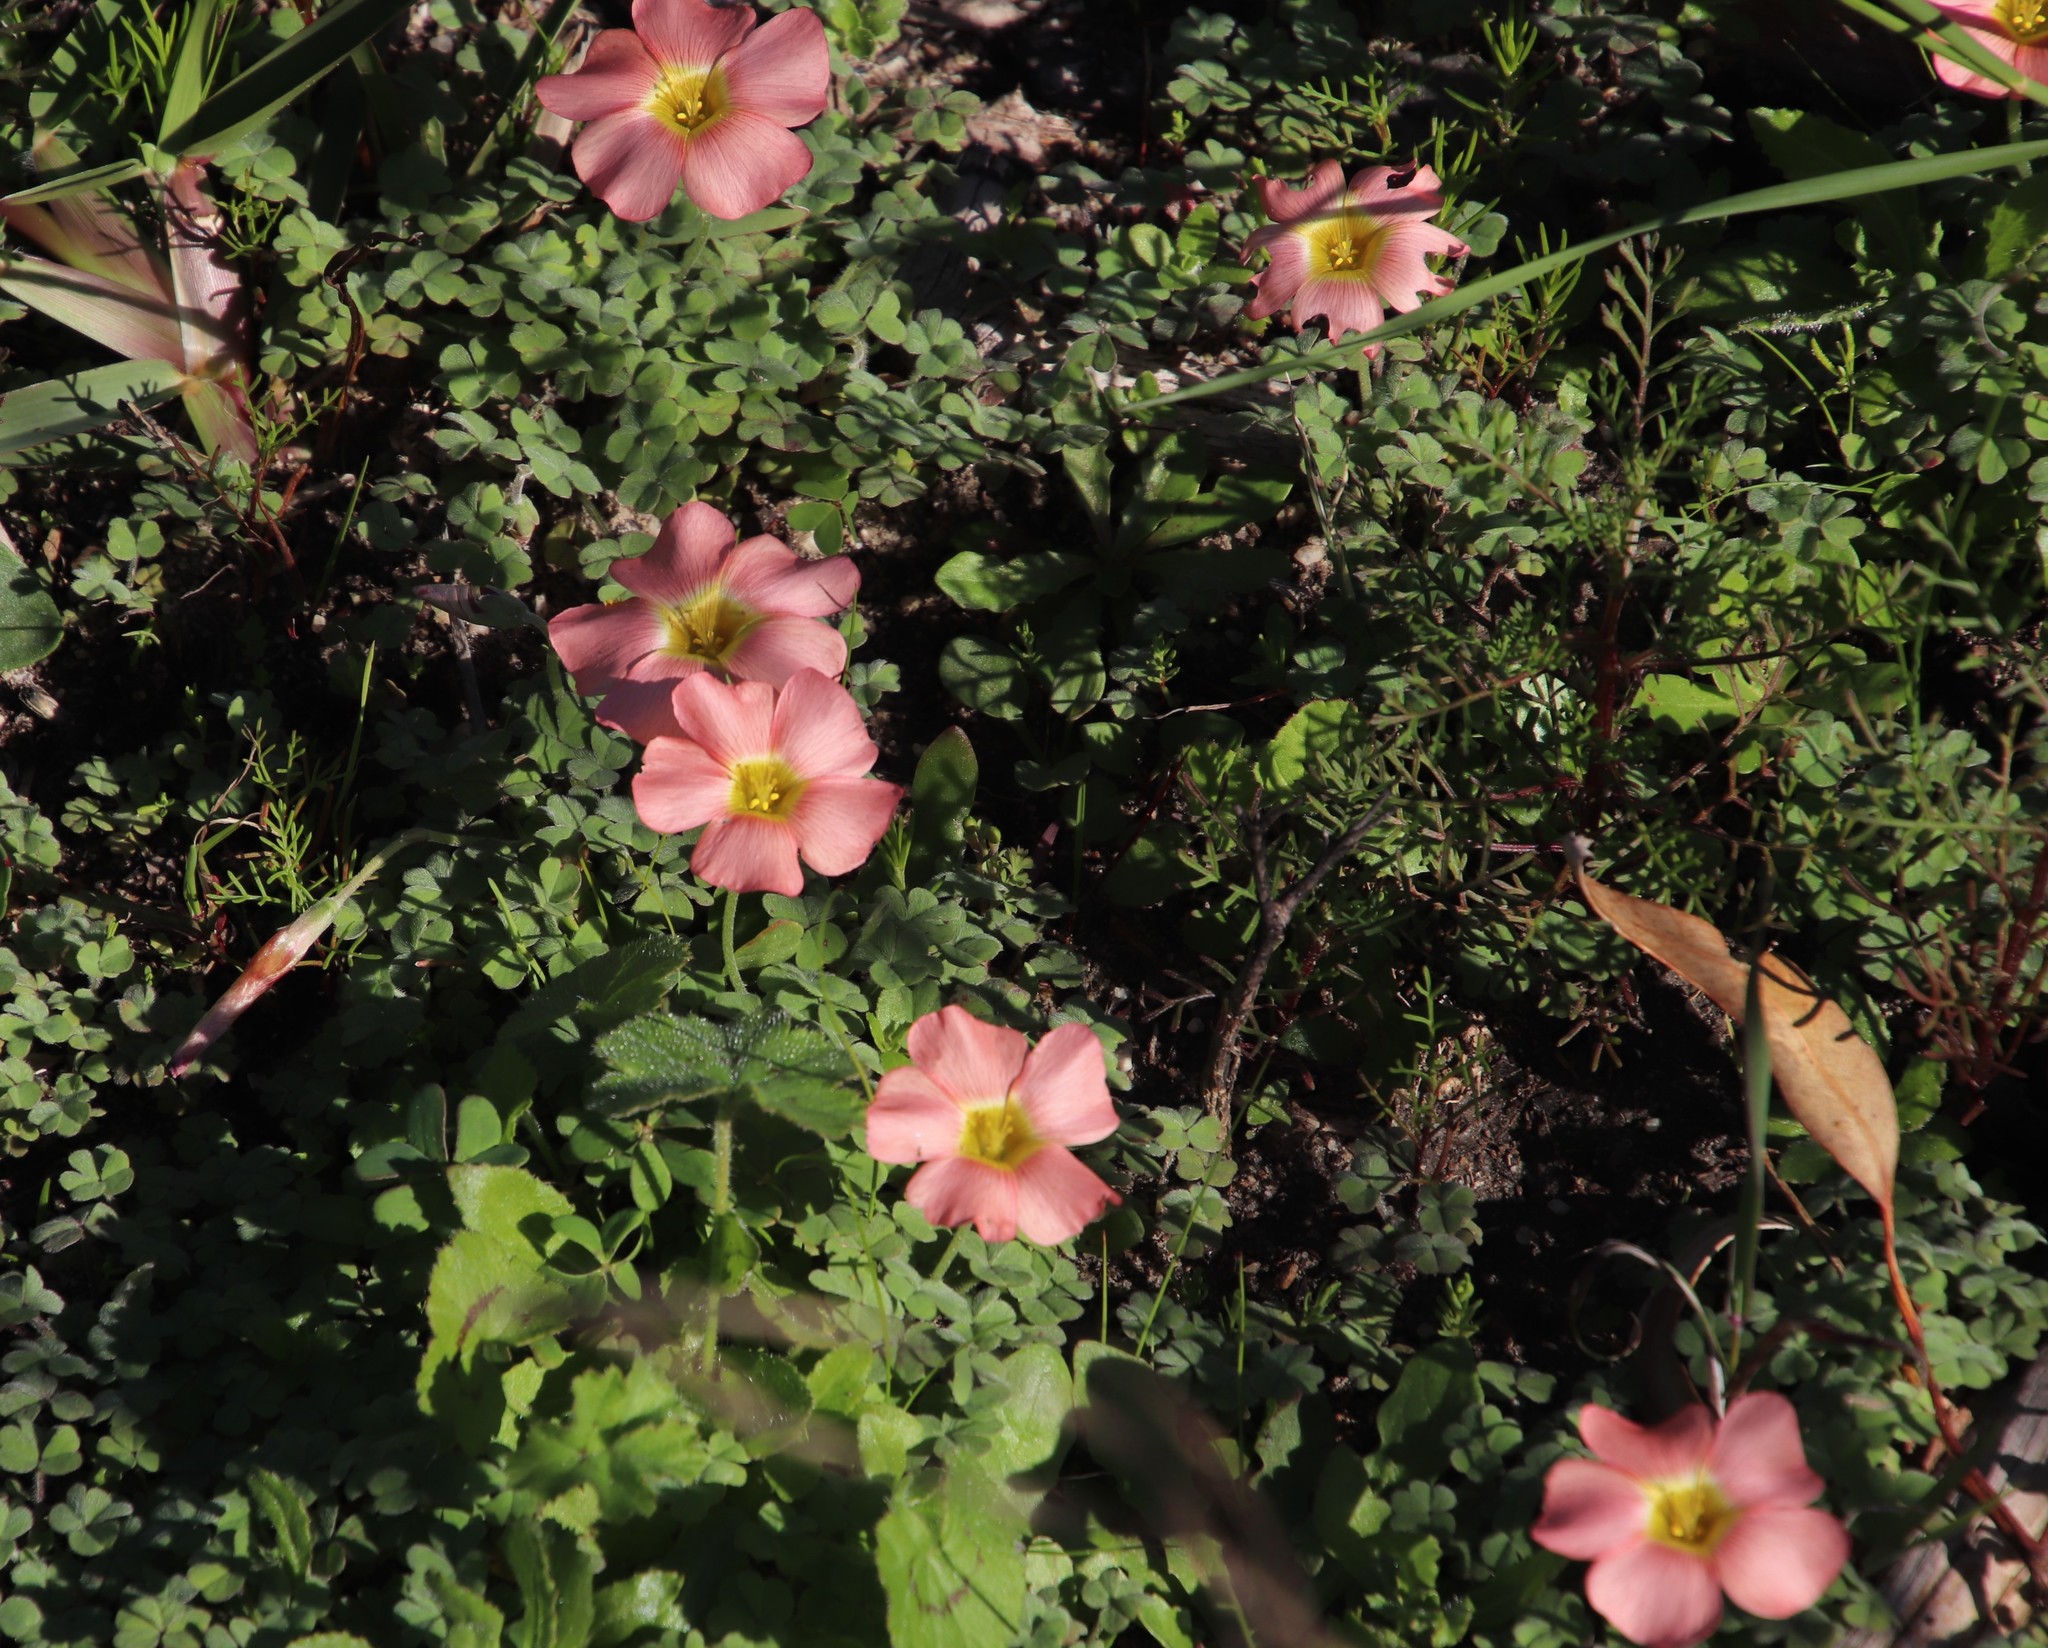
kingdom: Plantae
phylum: Tracheophyta
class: Magnoliopsida
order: Oxalidales
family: Oxalidaceae
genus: Oxalis
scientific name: Oxalis obtusa
